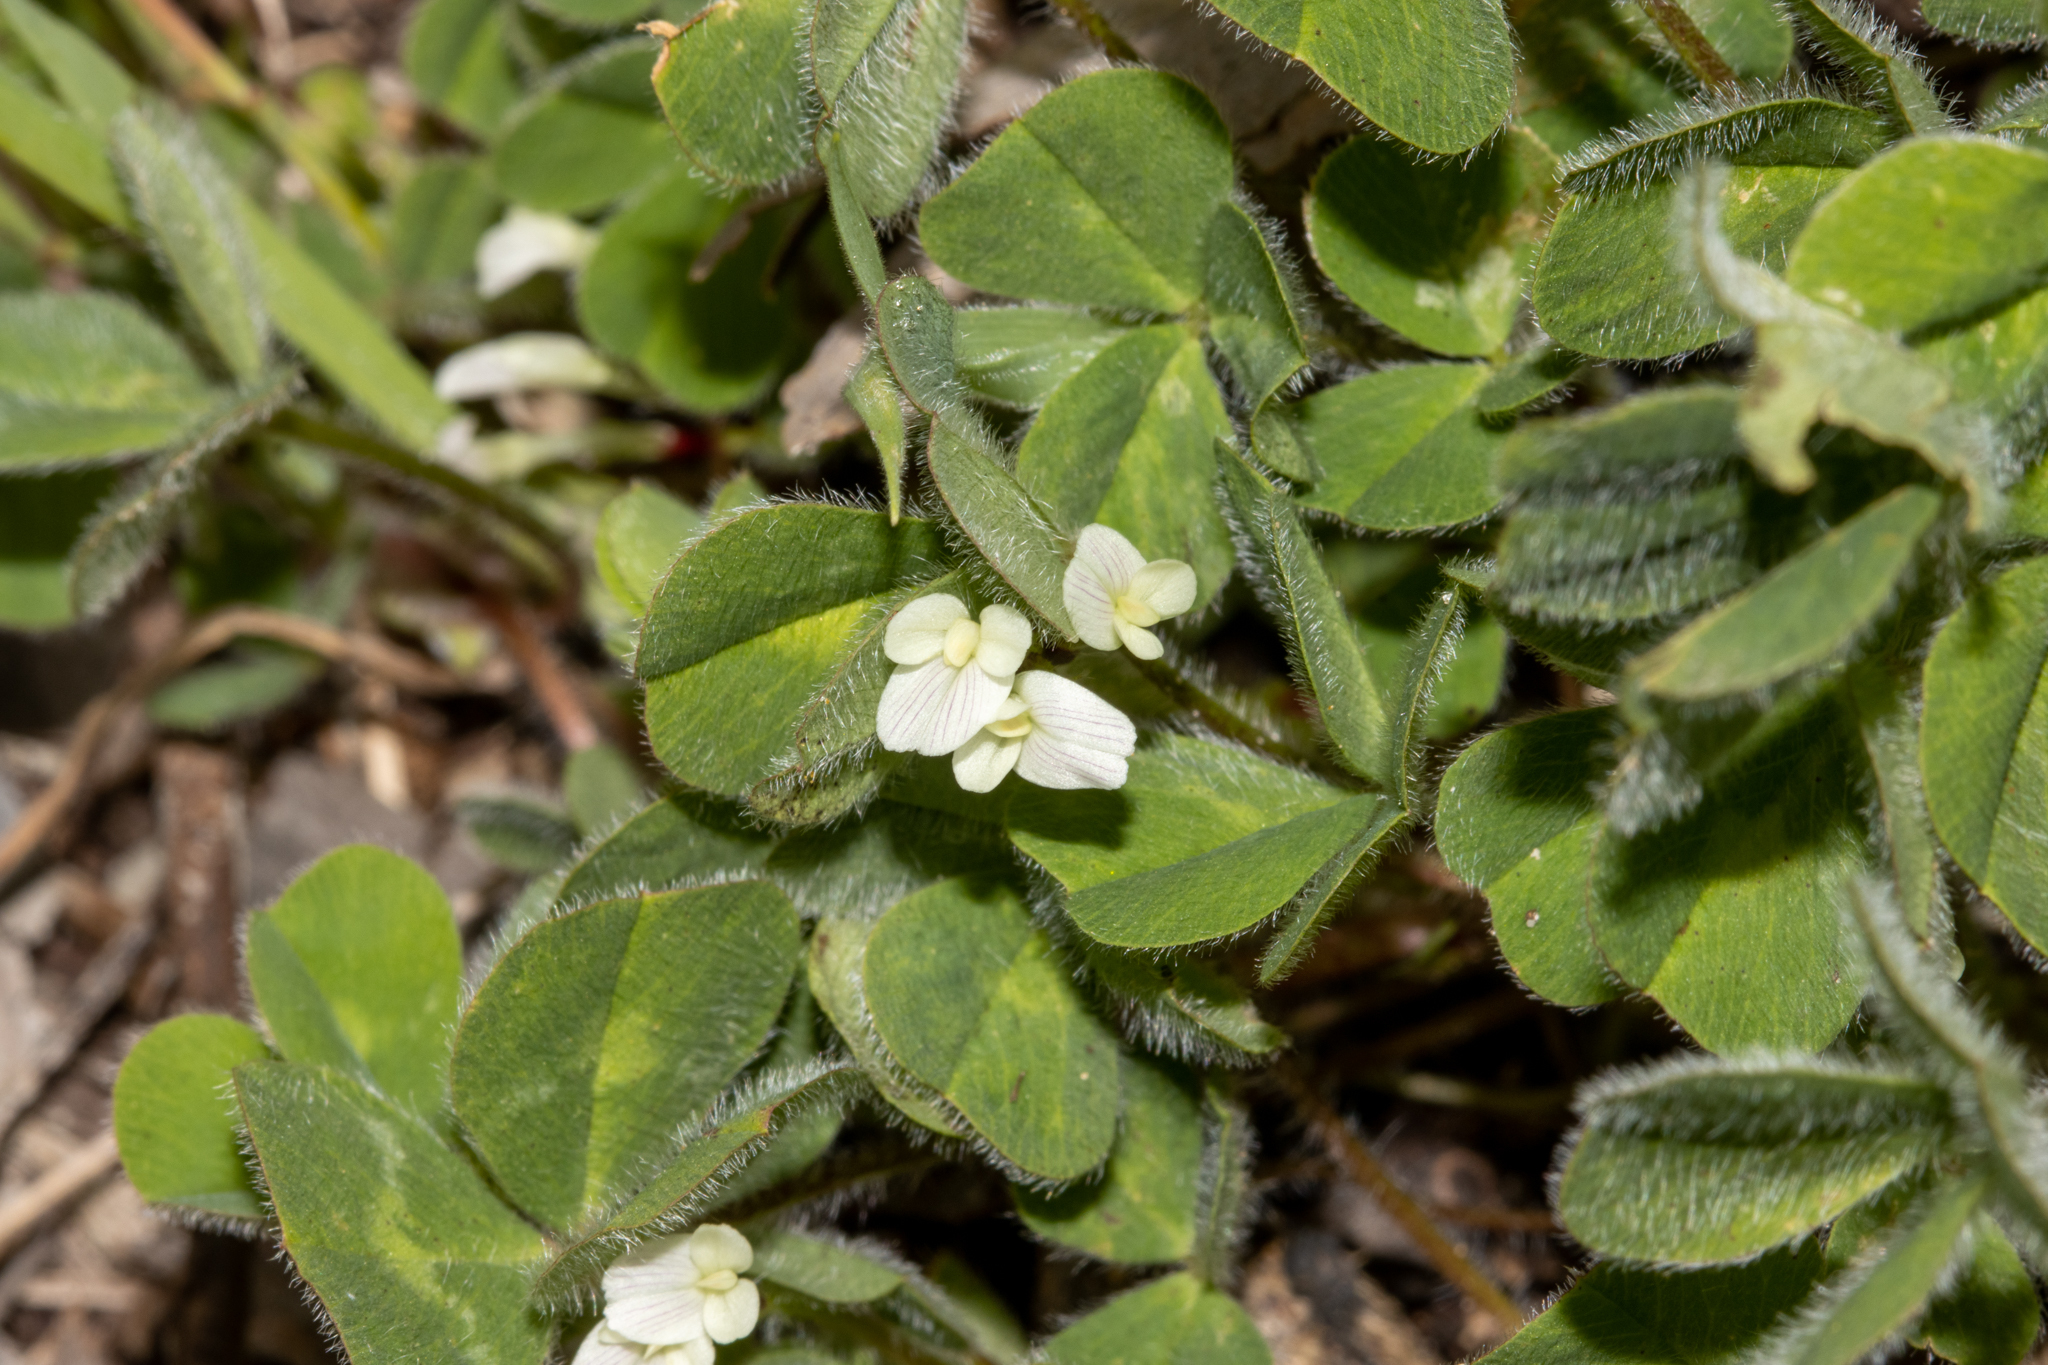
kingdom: Plantae
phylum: Tracheophyta
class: Magnoliopsida
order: Fabales
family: Fabaceae
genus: Trifolium
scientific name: Trifolium subterraneum
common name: Subterranean clover
